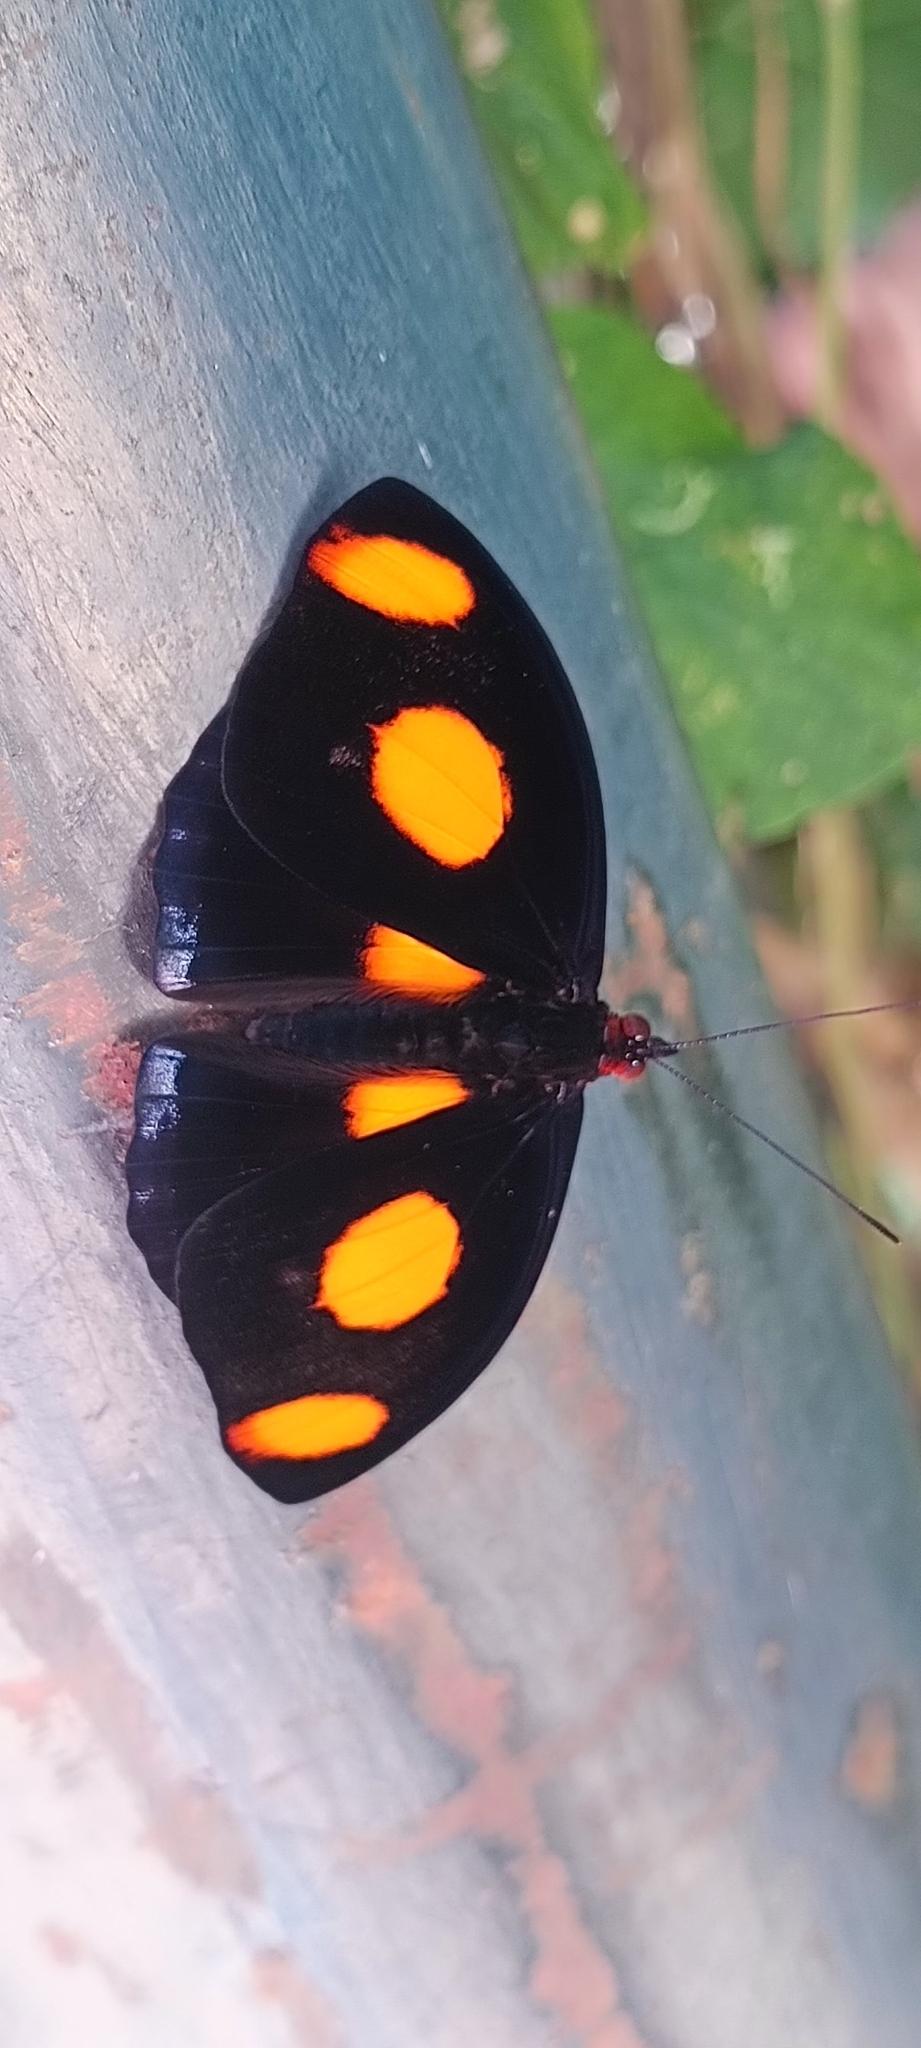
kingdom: Animalia
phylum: Arthropoda
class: Insecta
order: Lepidoptera
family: Nymphalidae
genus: Catonephele
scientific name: Catonephele numilia
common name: Blue-frosted banner
